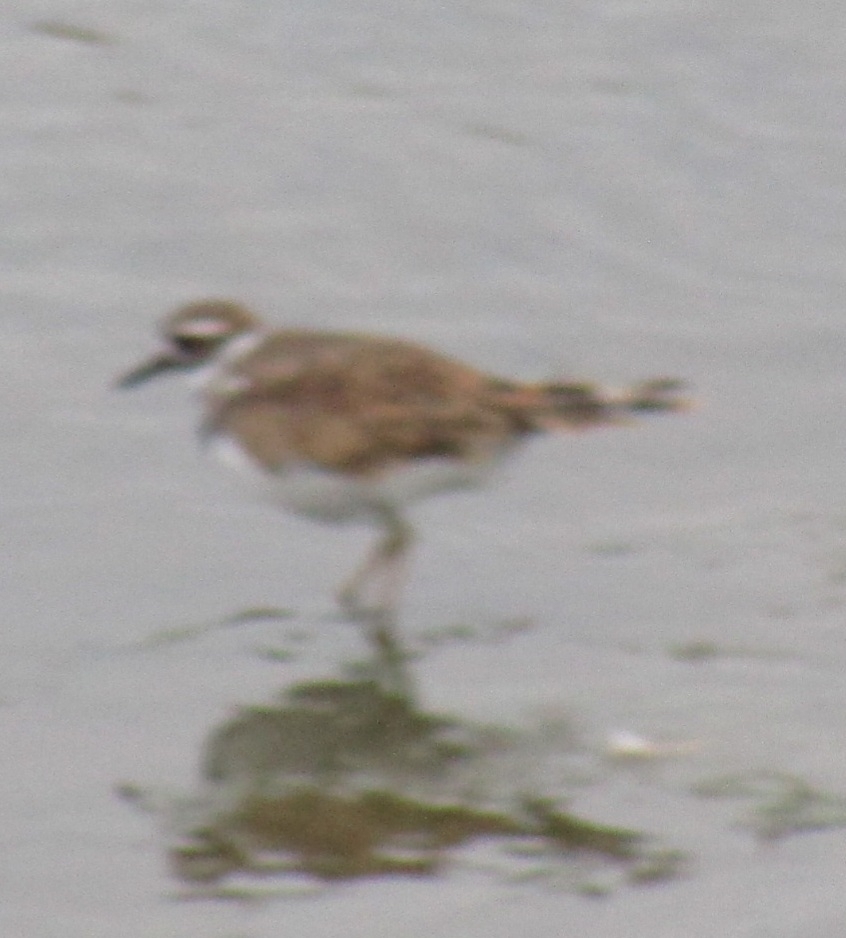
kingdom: Animalia
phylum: Chordata
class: Aves
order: Charadriiformes
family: Charadriidae
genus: Charadrius
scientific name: Charadrius vociferus
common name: Killdeer
